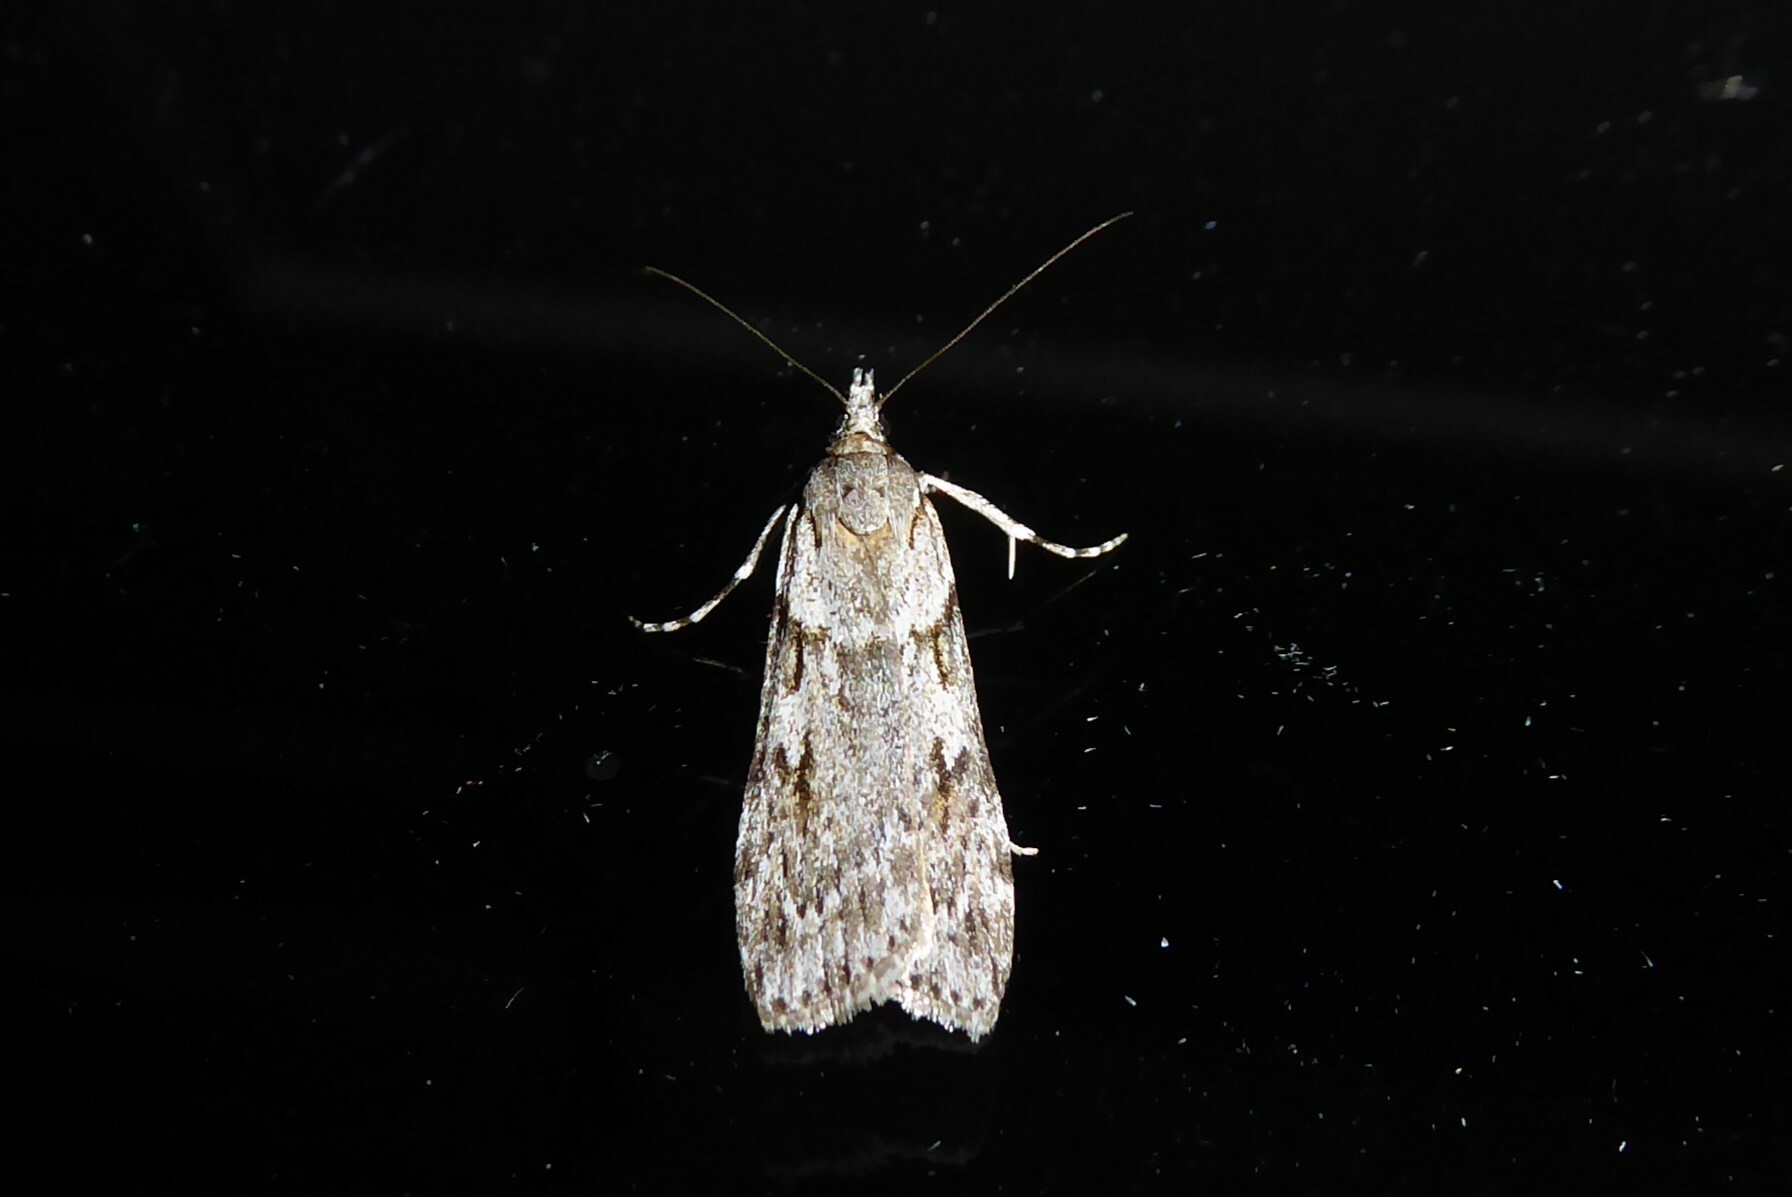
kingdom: Animalia
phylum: Arthropoda
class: Insecta
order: Lepidoptera
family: Crambidae
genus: Scoparia
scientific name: Scoparia halopis
